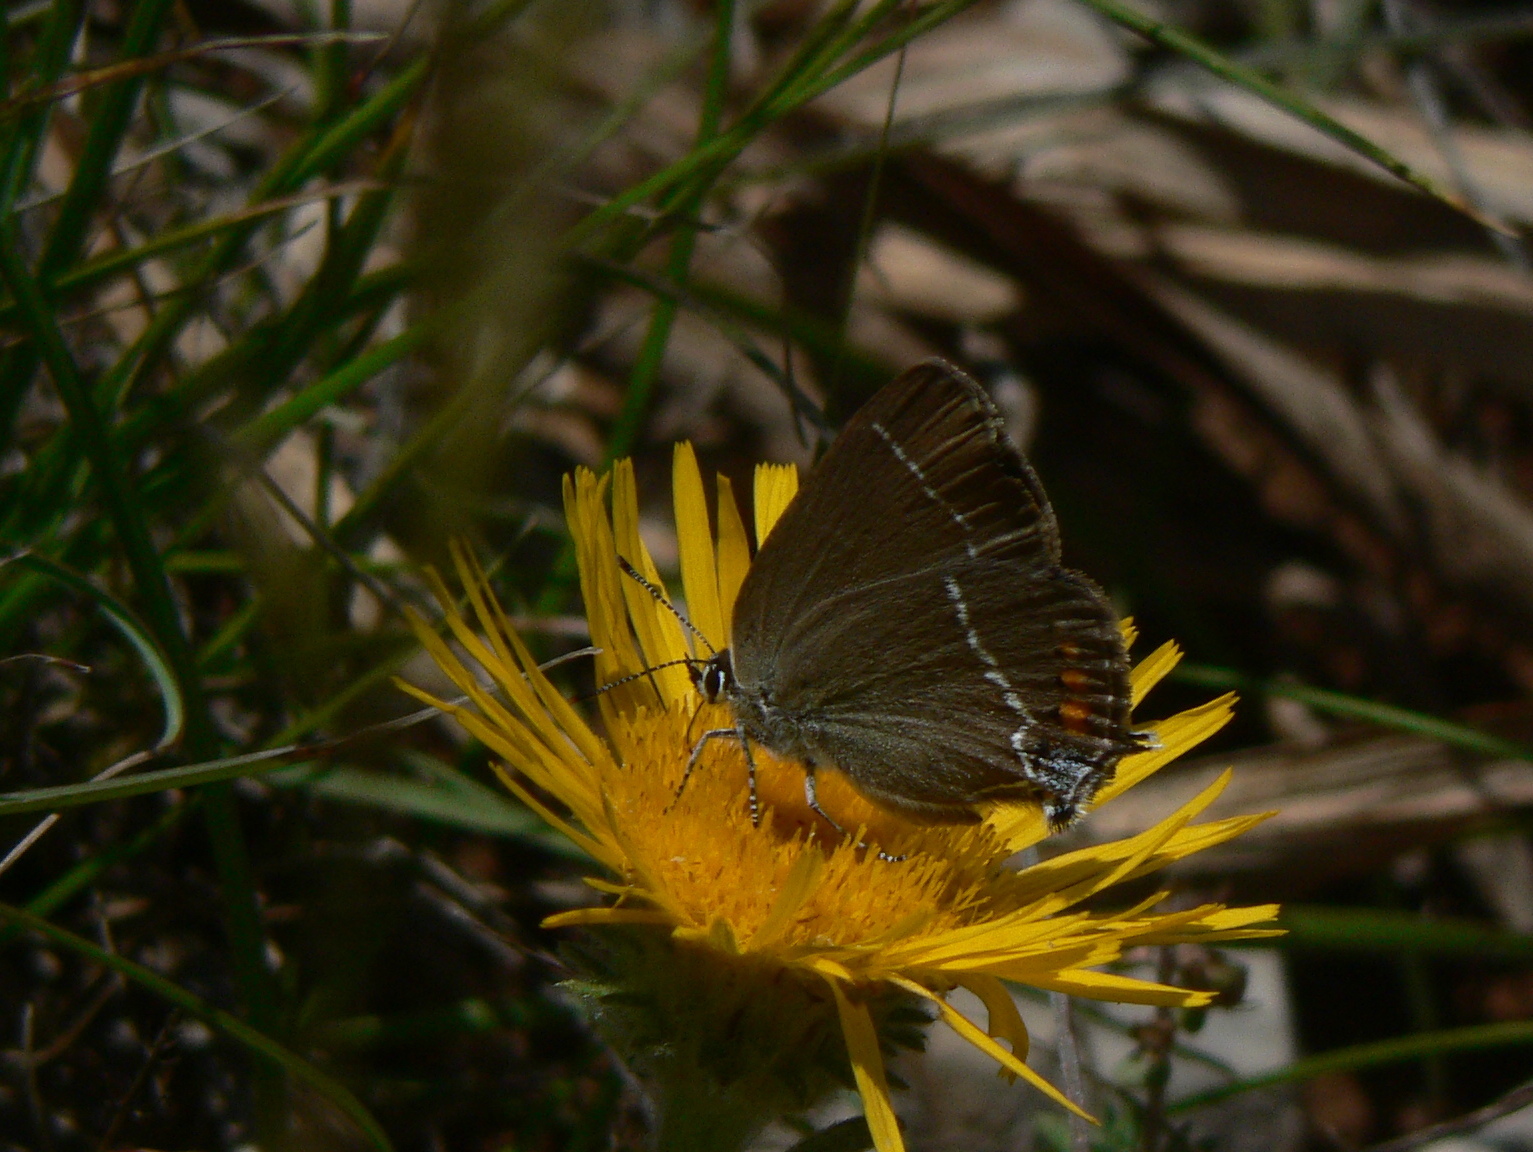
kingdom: Animalia
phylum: Arthropoda
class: Insecta
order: Lepidoptera
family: Lycaenidae
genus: Tuttiola
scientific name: Tuttiola spini
